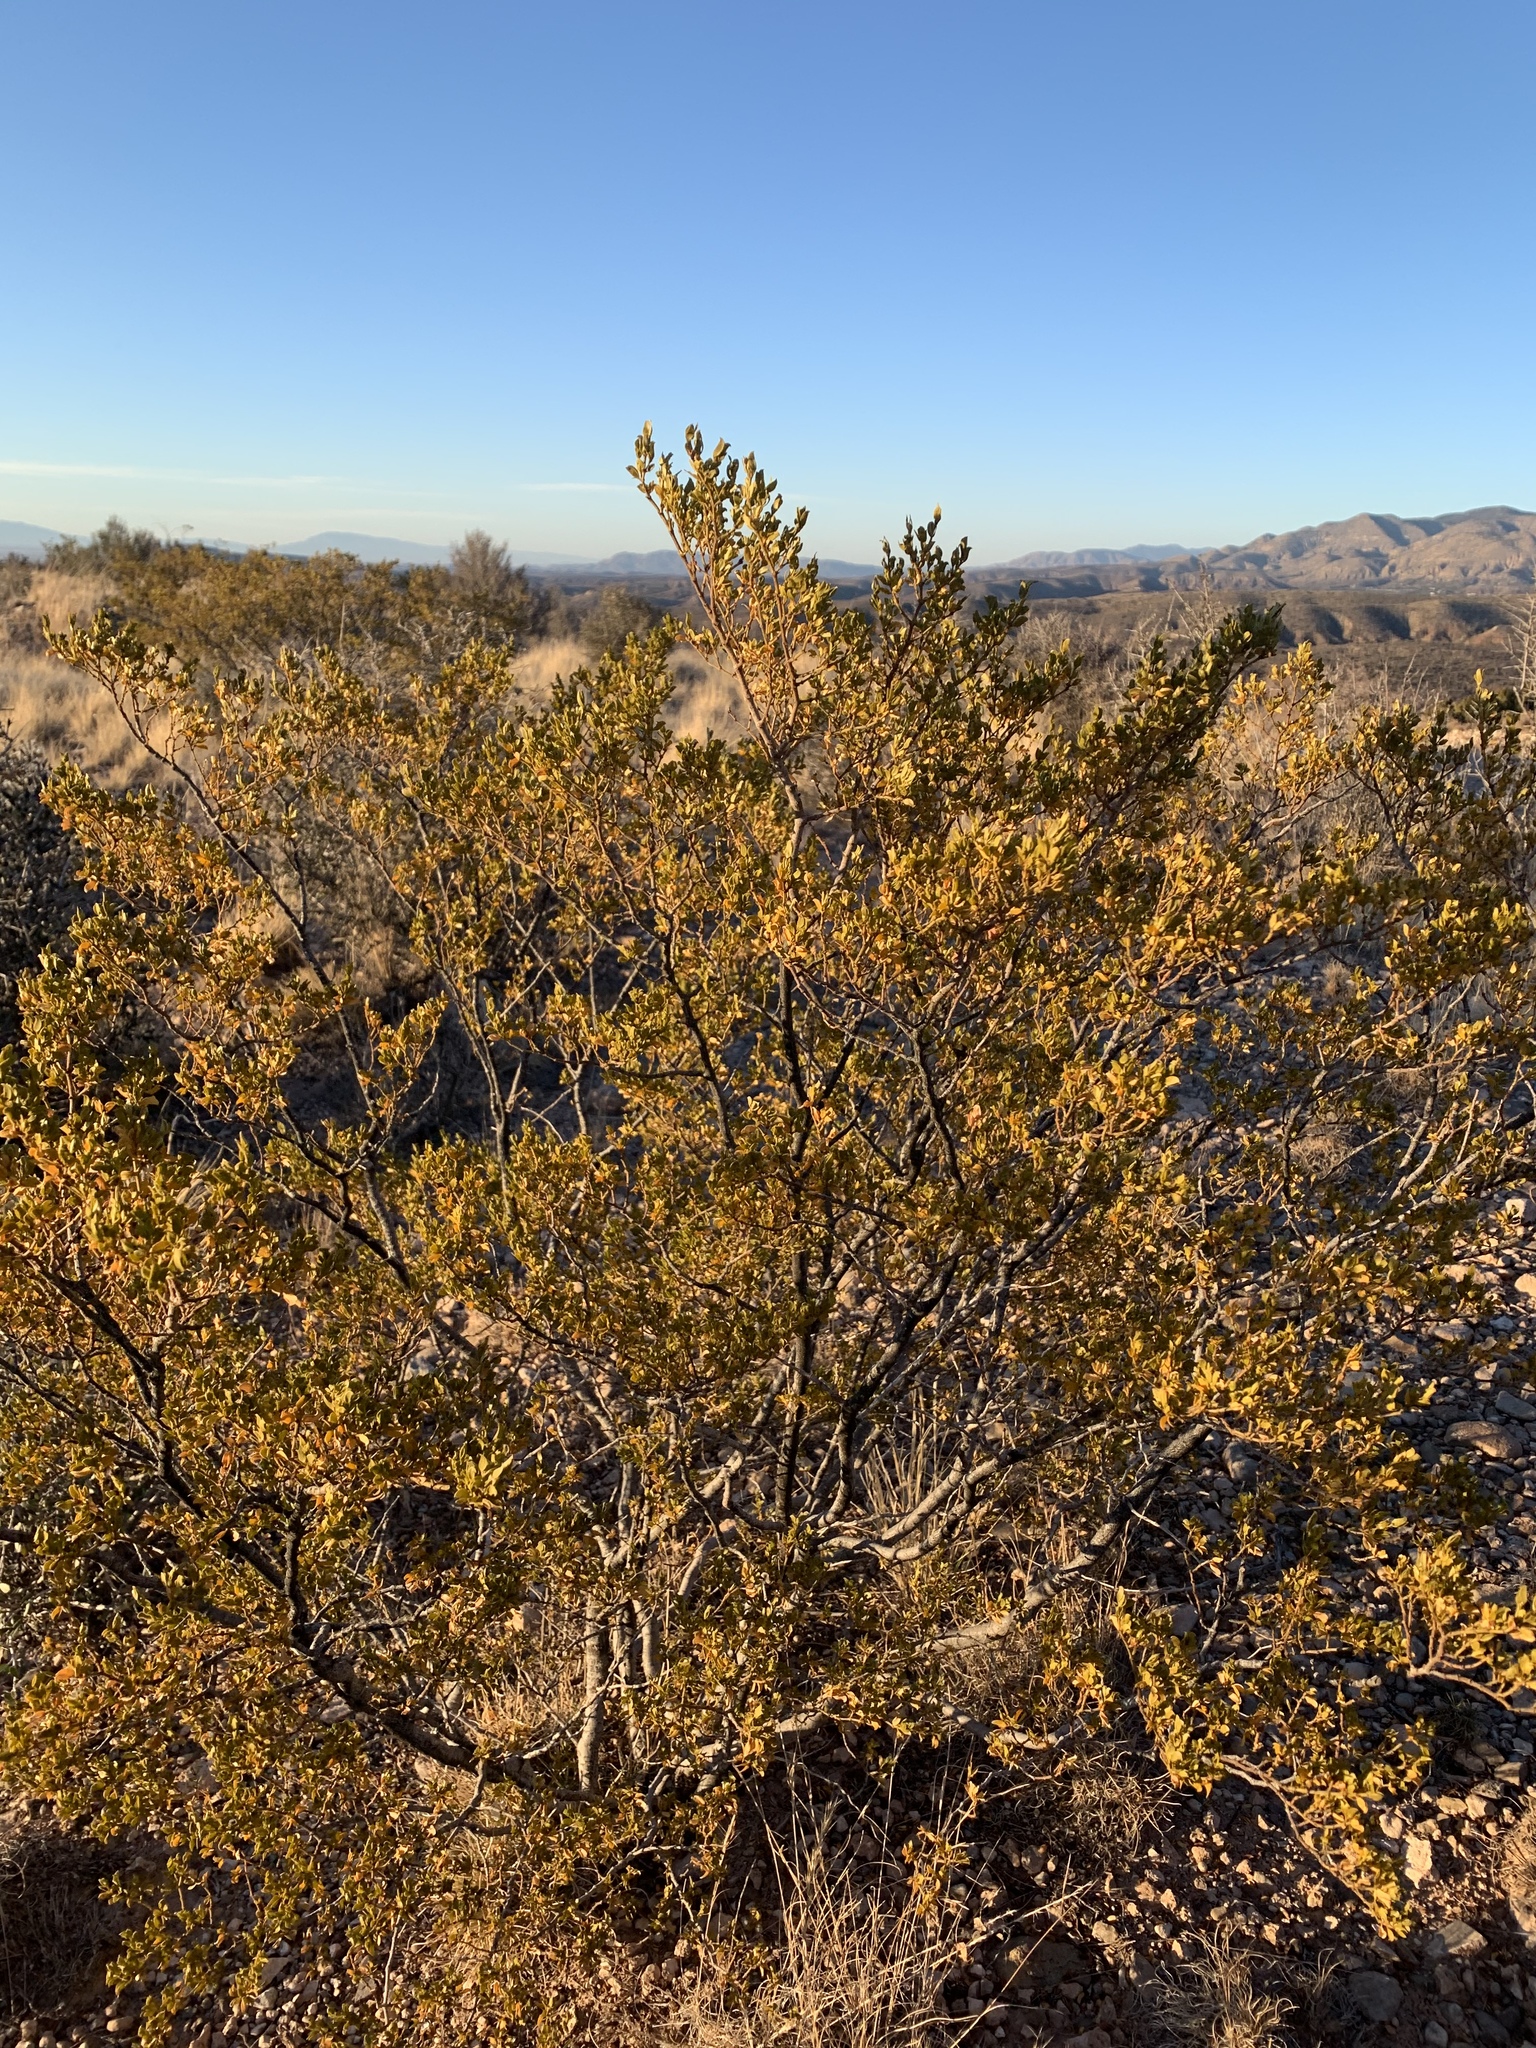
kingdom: Plantae
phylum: Tracheophyta
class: Magnoliopsida
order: Zygophyllales
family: Zygophyllaceae
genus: Larrea
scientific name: Larrea tridentata
